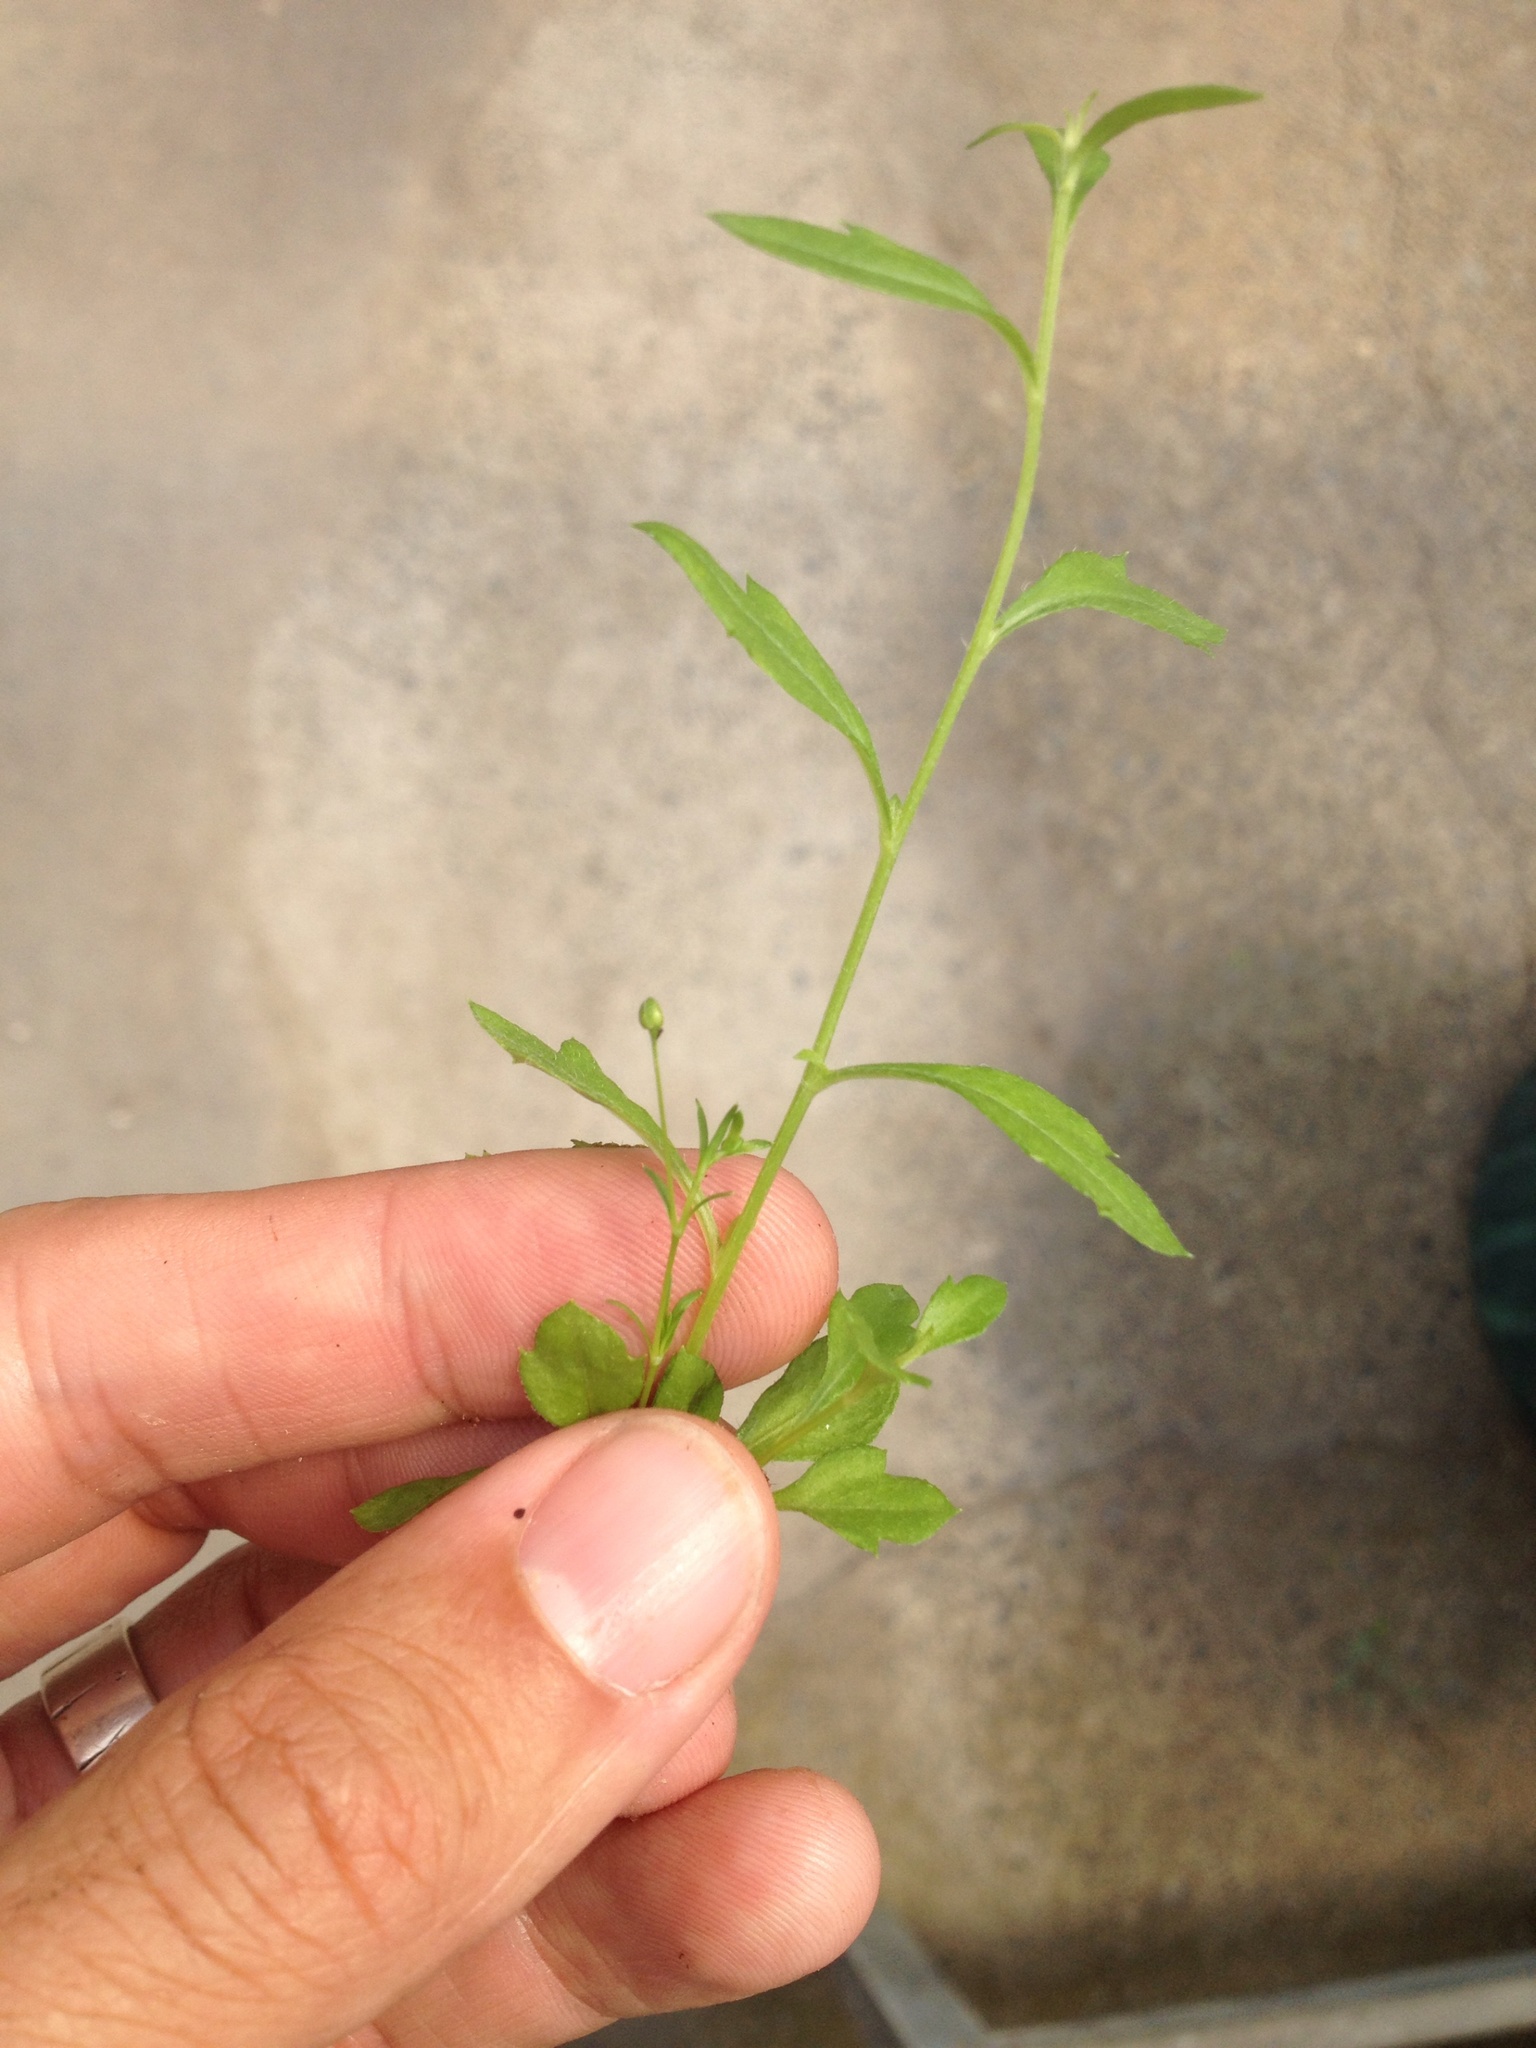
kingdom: Plantae
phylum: Tracheophyta
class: Magnoliopsida
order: Asterales
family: Asteraceae
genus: Erigeron
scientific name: Erigeron karvinskianus
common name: Mexican fleabane
